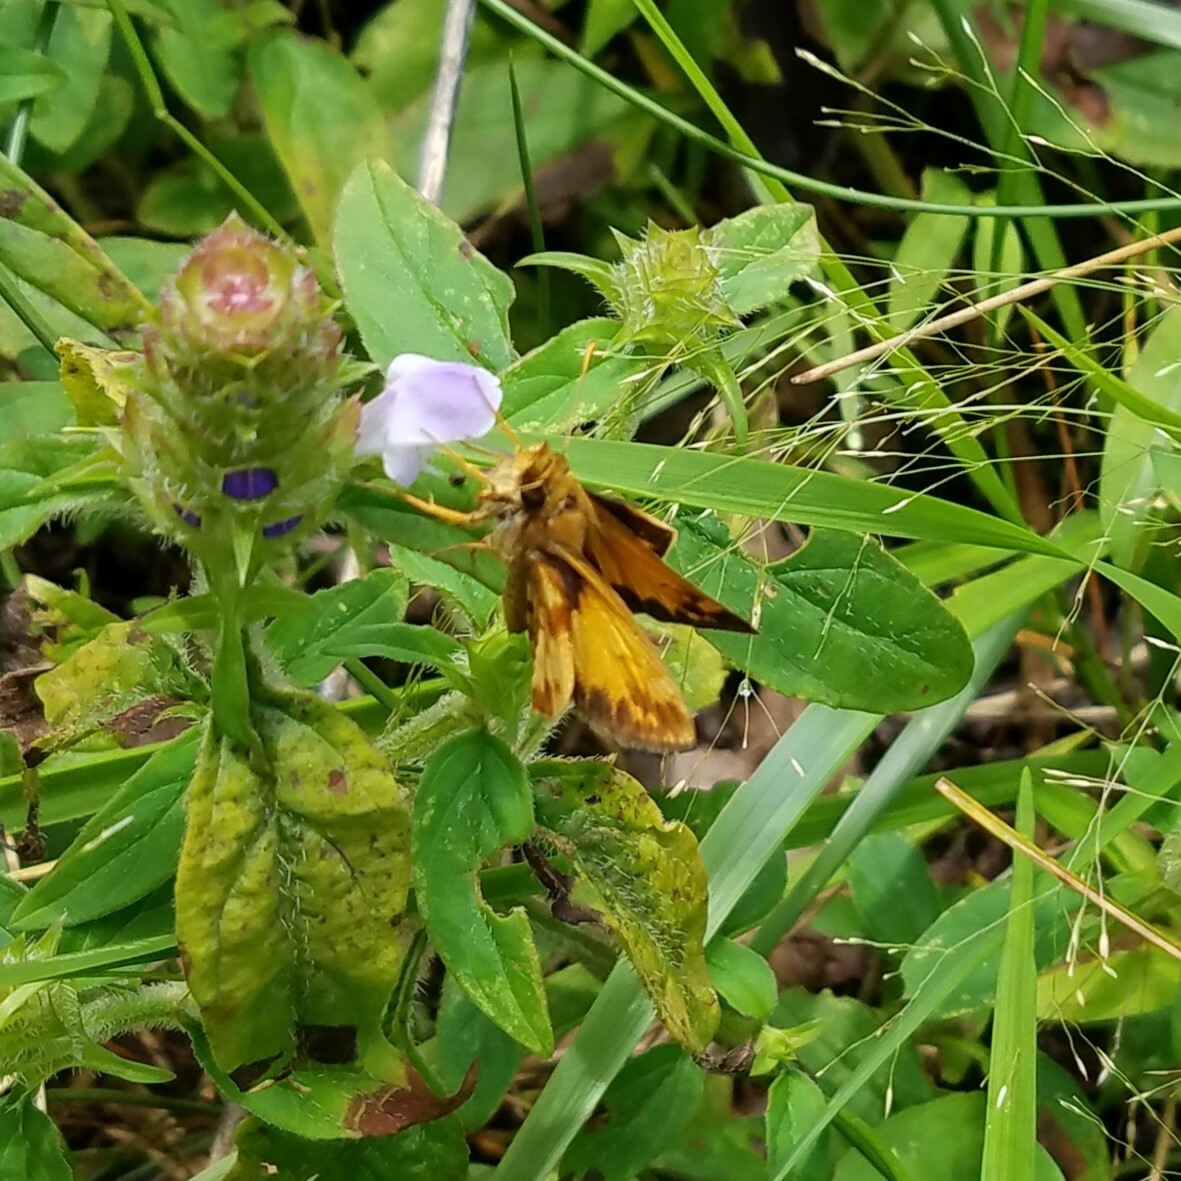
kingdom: Animalia
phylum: Arthropoda
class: Insecta
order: Lepidoptera
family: Hesperiidae
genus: Lon
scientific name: Lon zabulon
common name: Zabulon skipper
